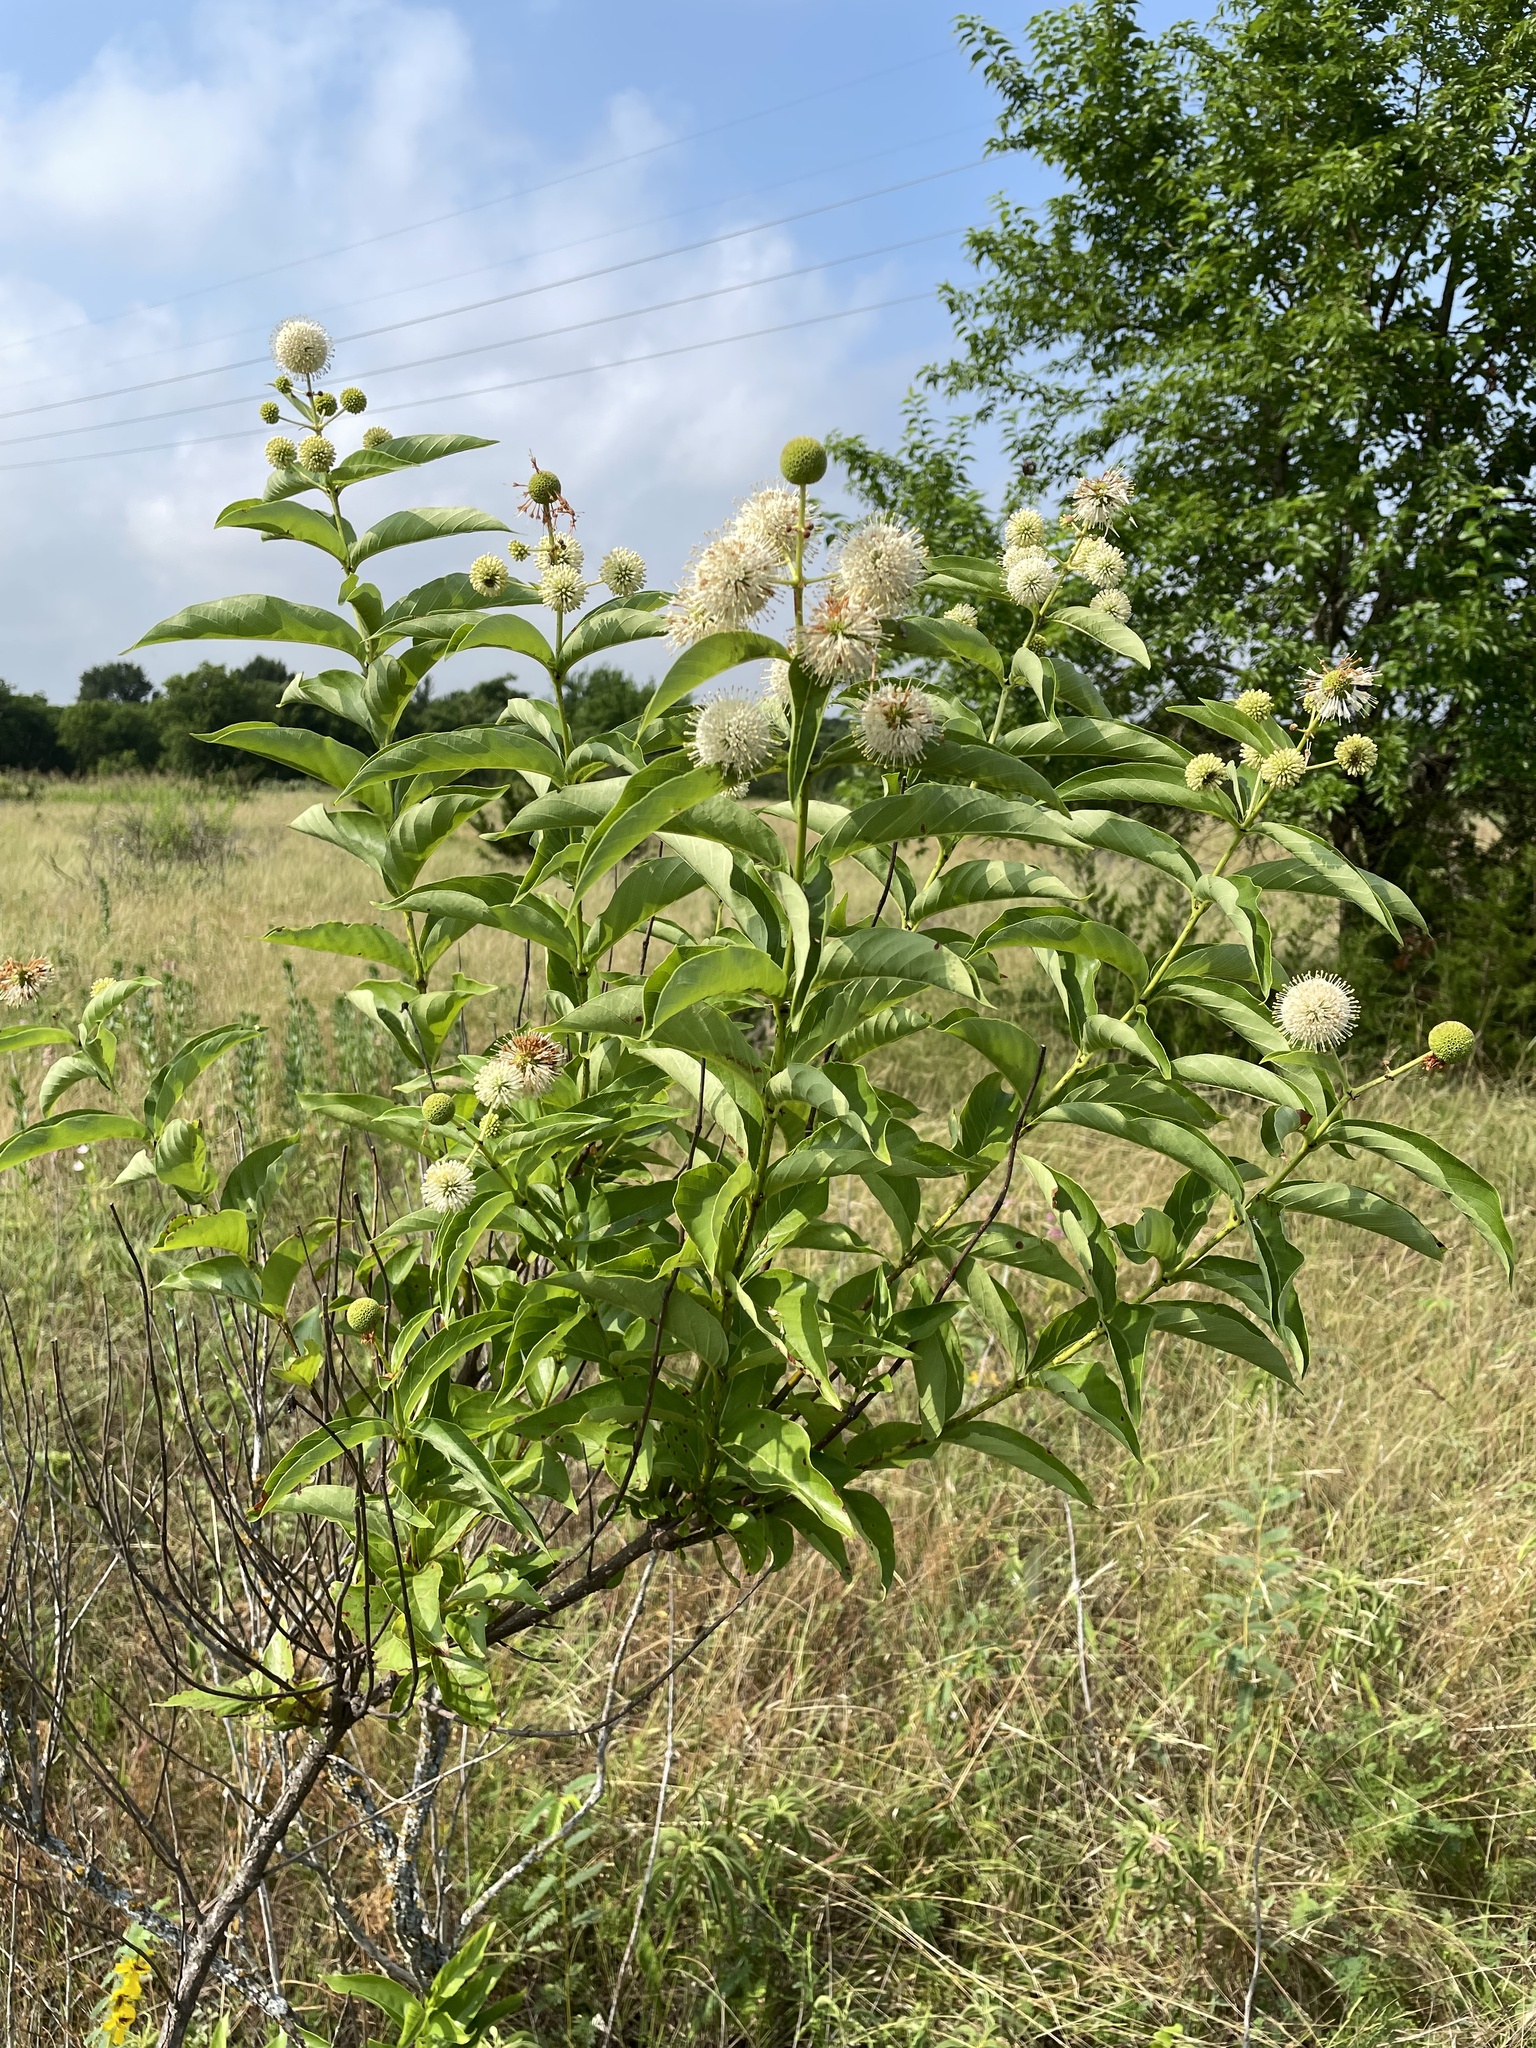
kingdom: Plantae
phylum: Tracheophyta
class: Magnoliopsida
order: Gentianales
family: Rubiaceae
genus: Cephalanthus
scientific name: Cephalanthus occidentalis
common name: Button-willow
